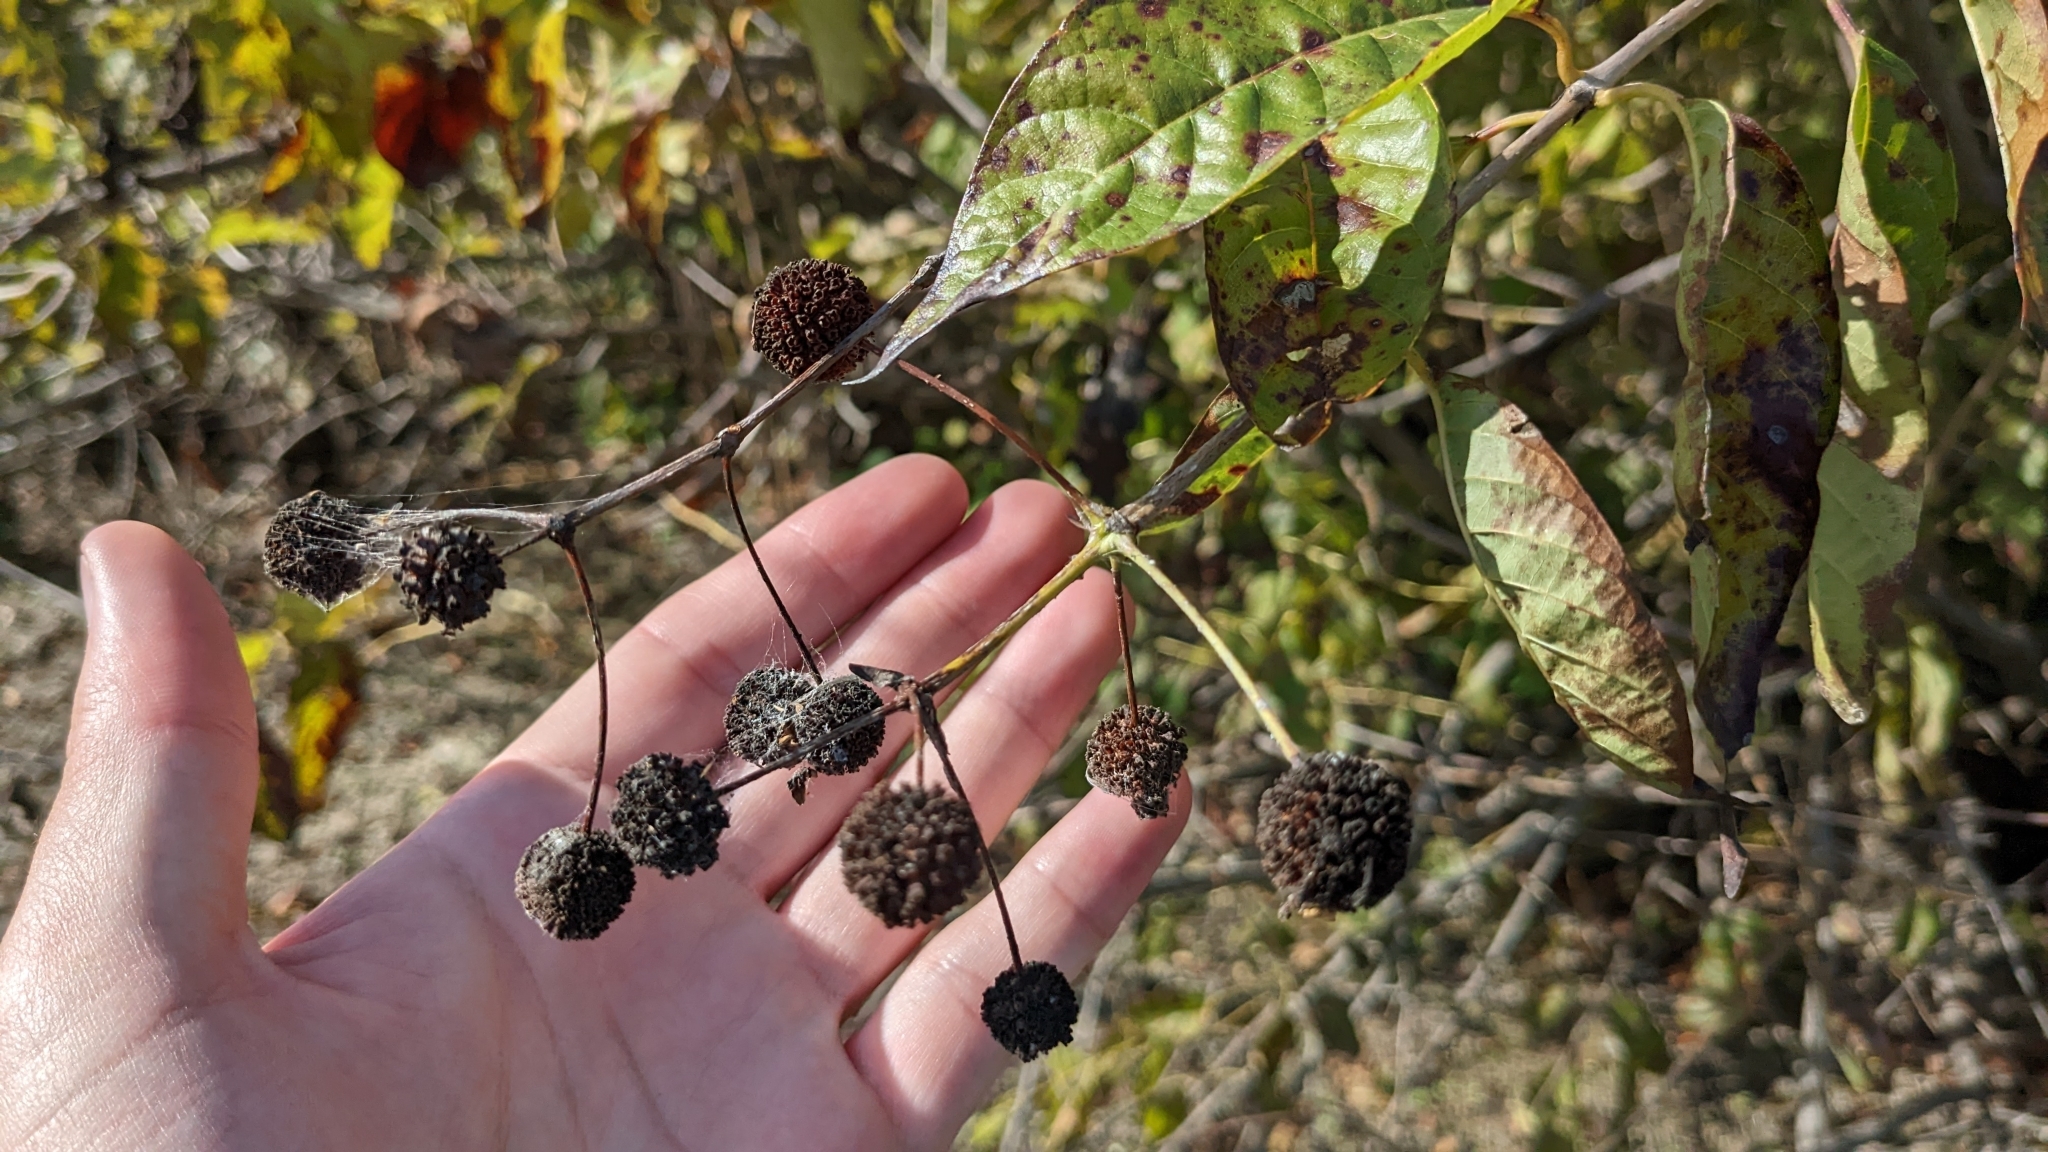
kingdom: Plantae
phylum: Tracheophyta
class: Magnoliopsida
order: Gentianales
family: Rubiaceae
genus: Cephalanthus
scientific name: Cephalanthus occidentalis
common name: Button-willow
